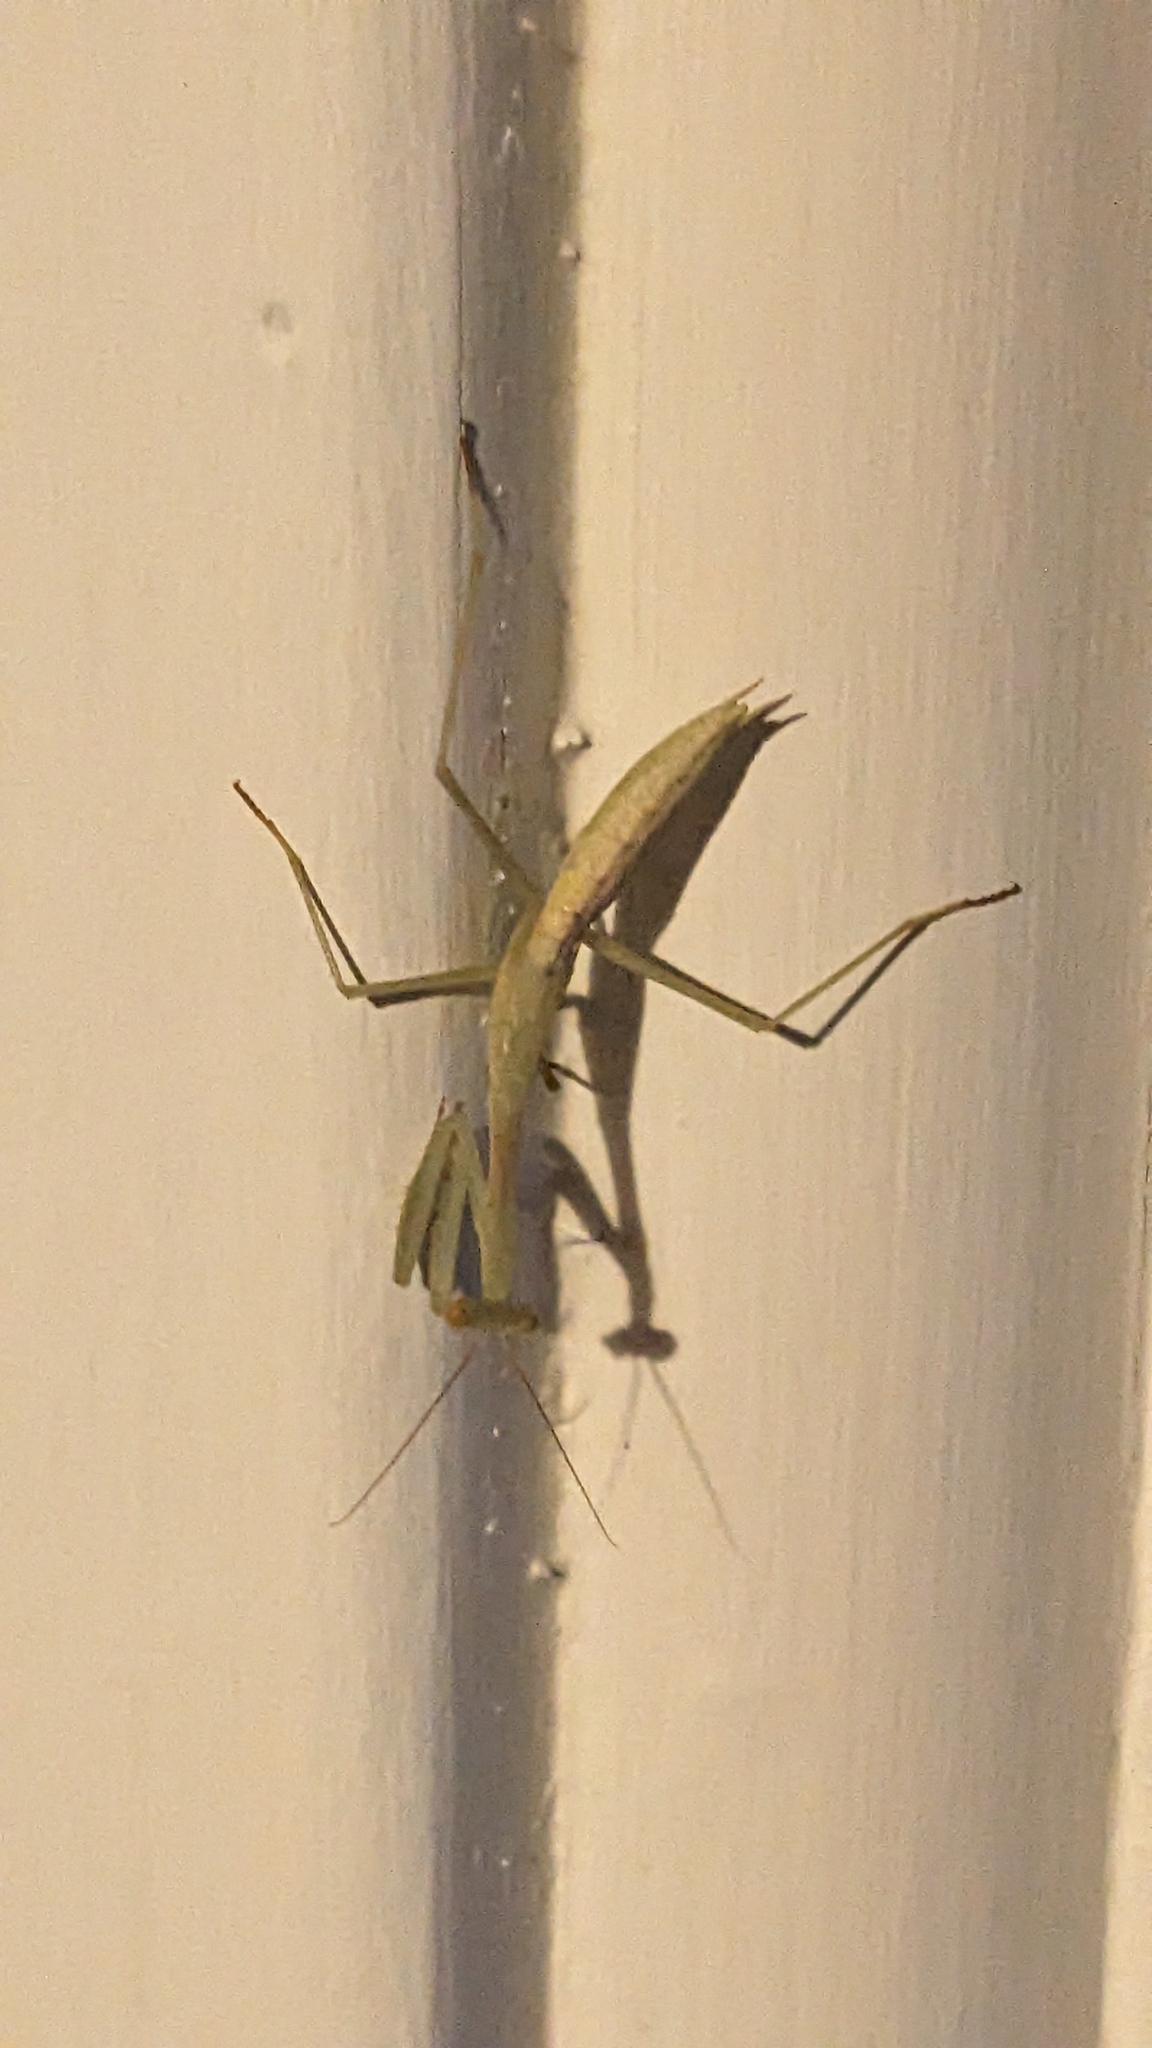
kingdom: Animalia
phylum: Arthropoda
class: Insecta
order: Mantodea
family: Miomantidae
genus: Miomantis
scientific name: Miomantis caffra
